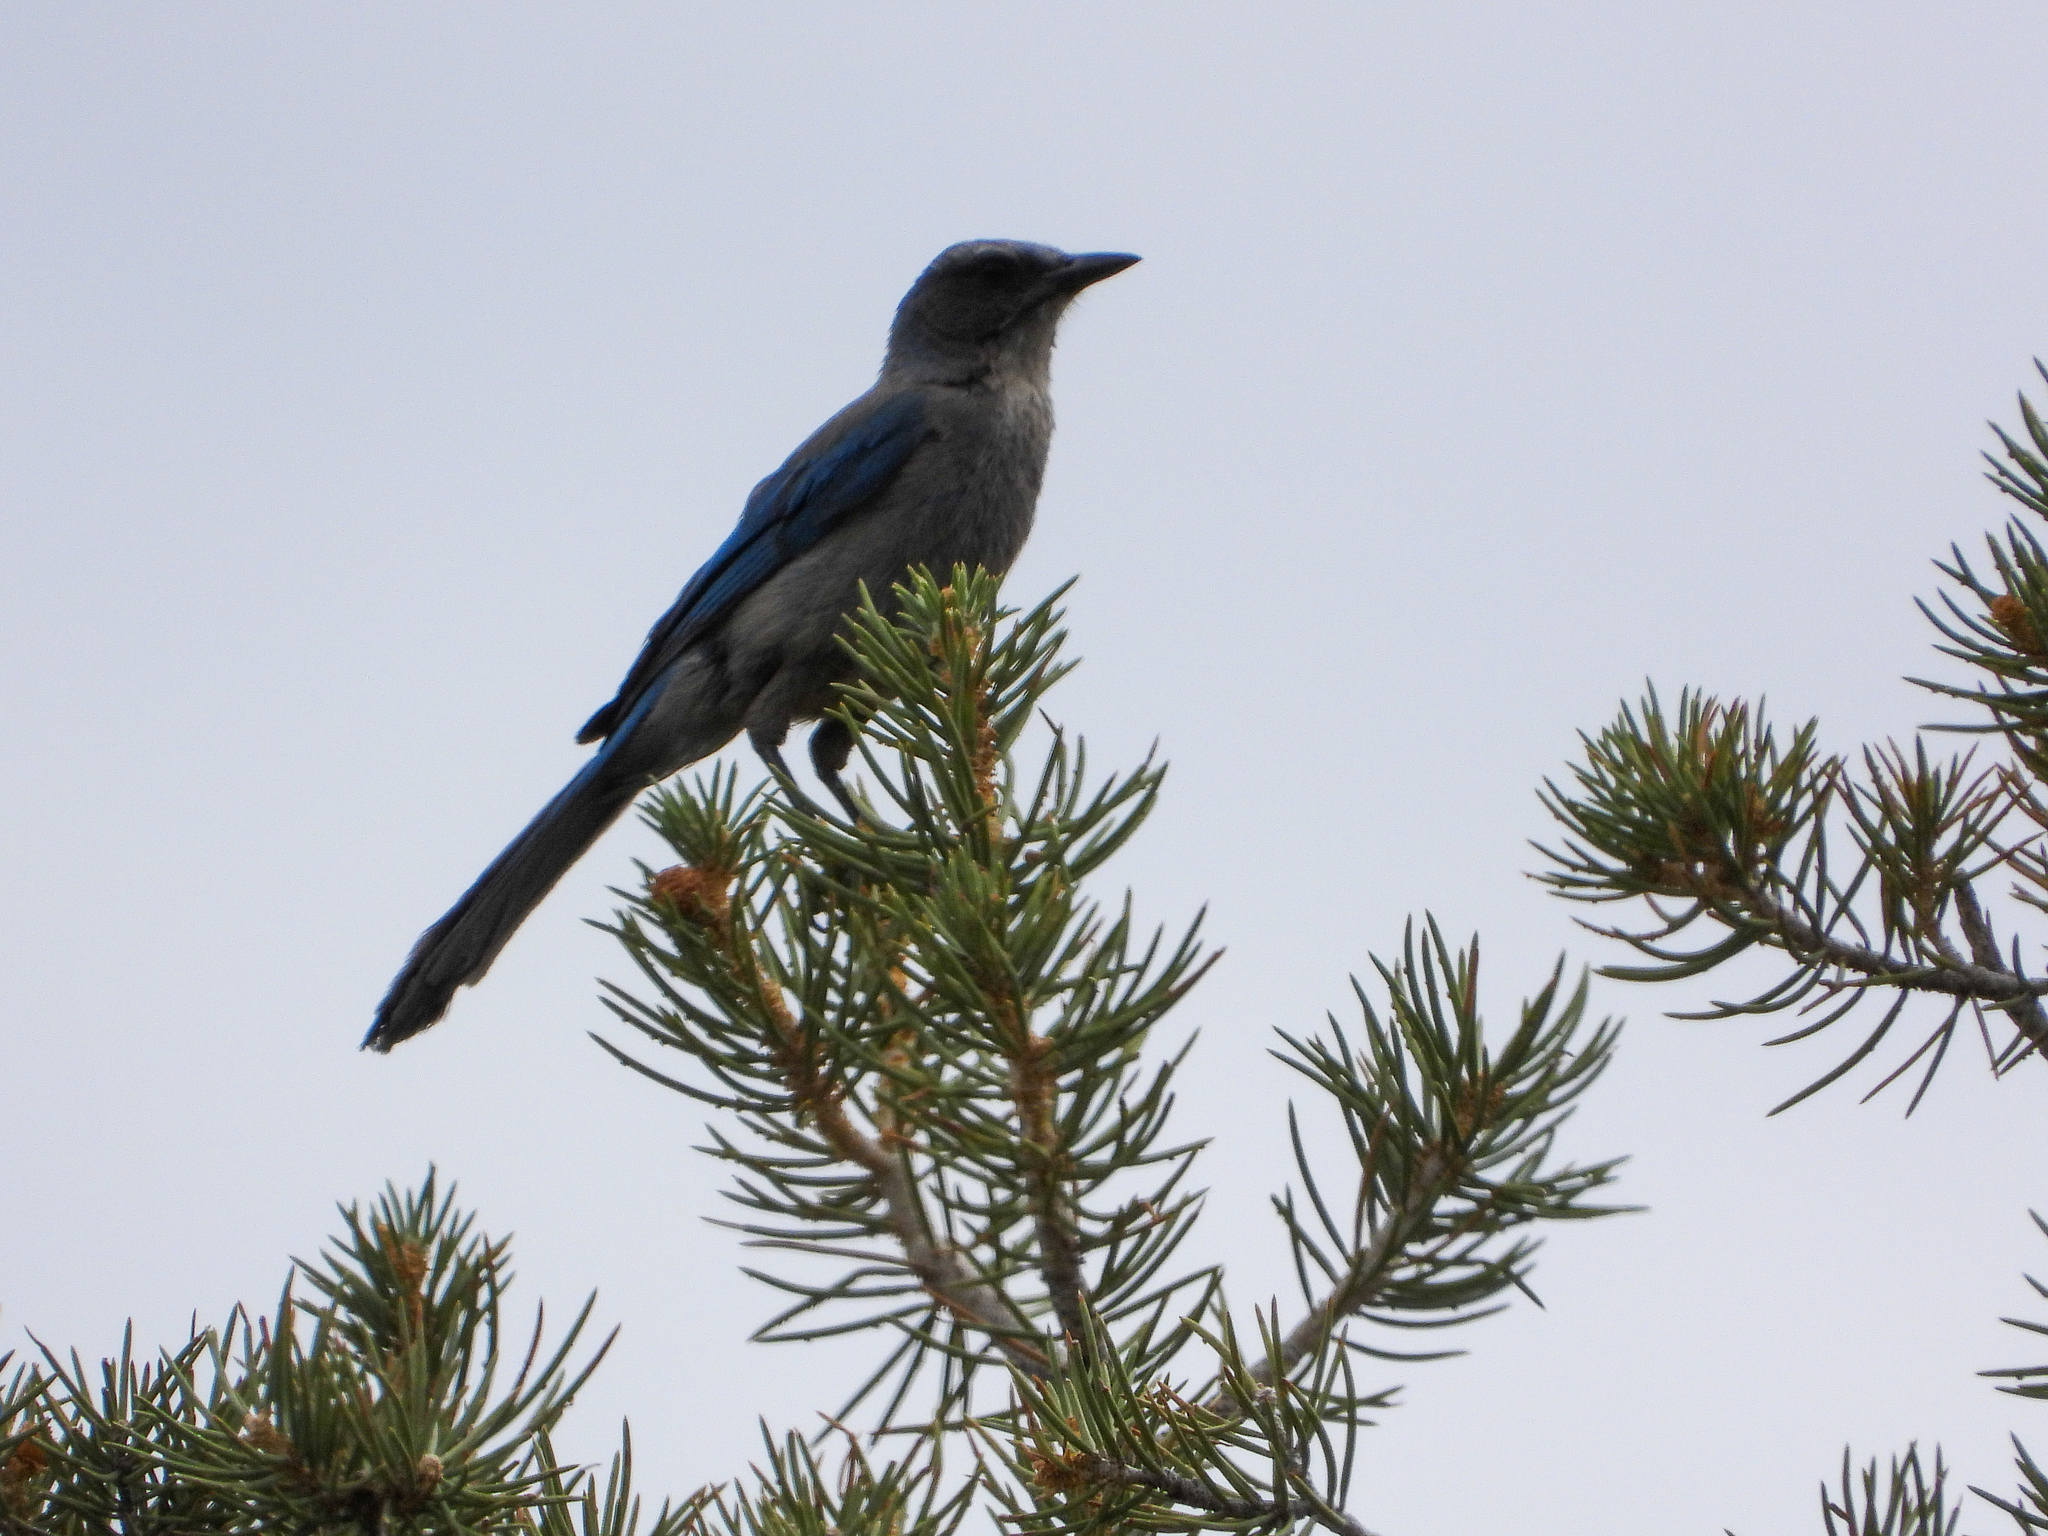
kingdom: Animalia
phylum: Chordata
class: Aves
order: Passeriformes
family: Corvidae
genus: Aphelocoma
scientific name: Aphelocoma woodhouseii
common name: Woodhouse's scrub-jay
